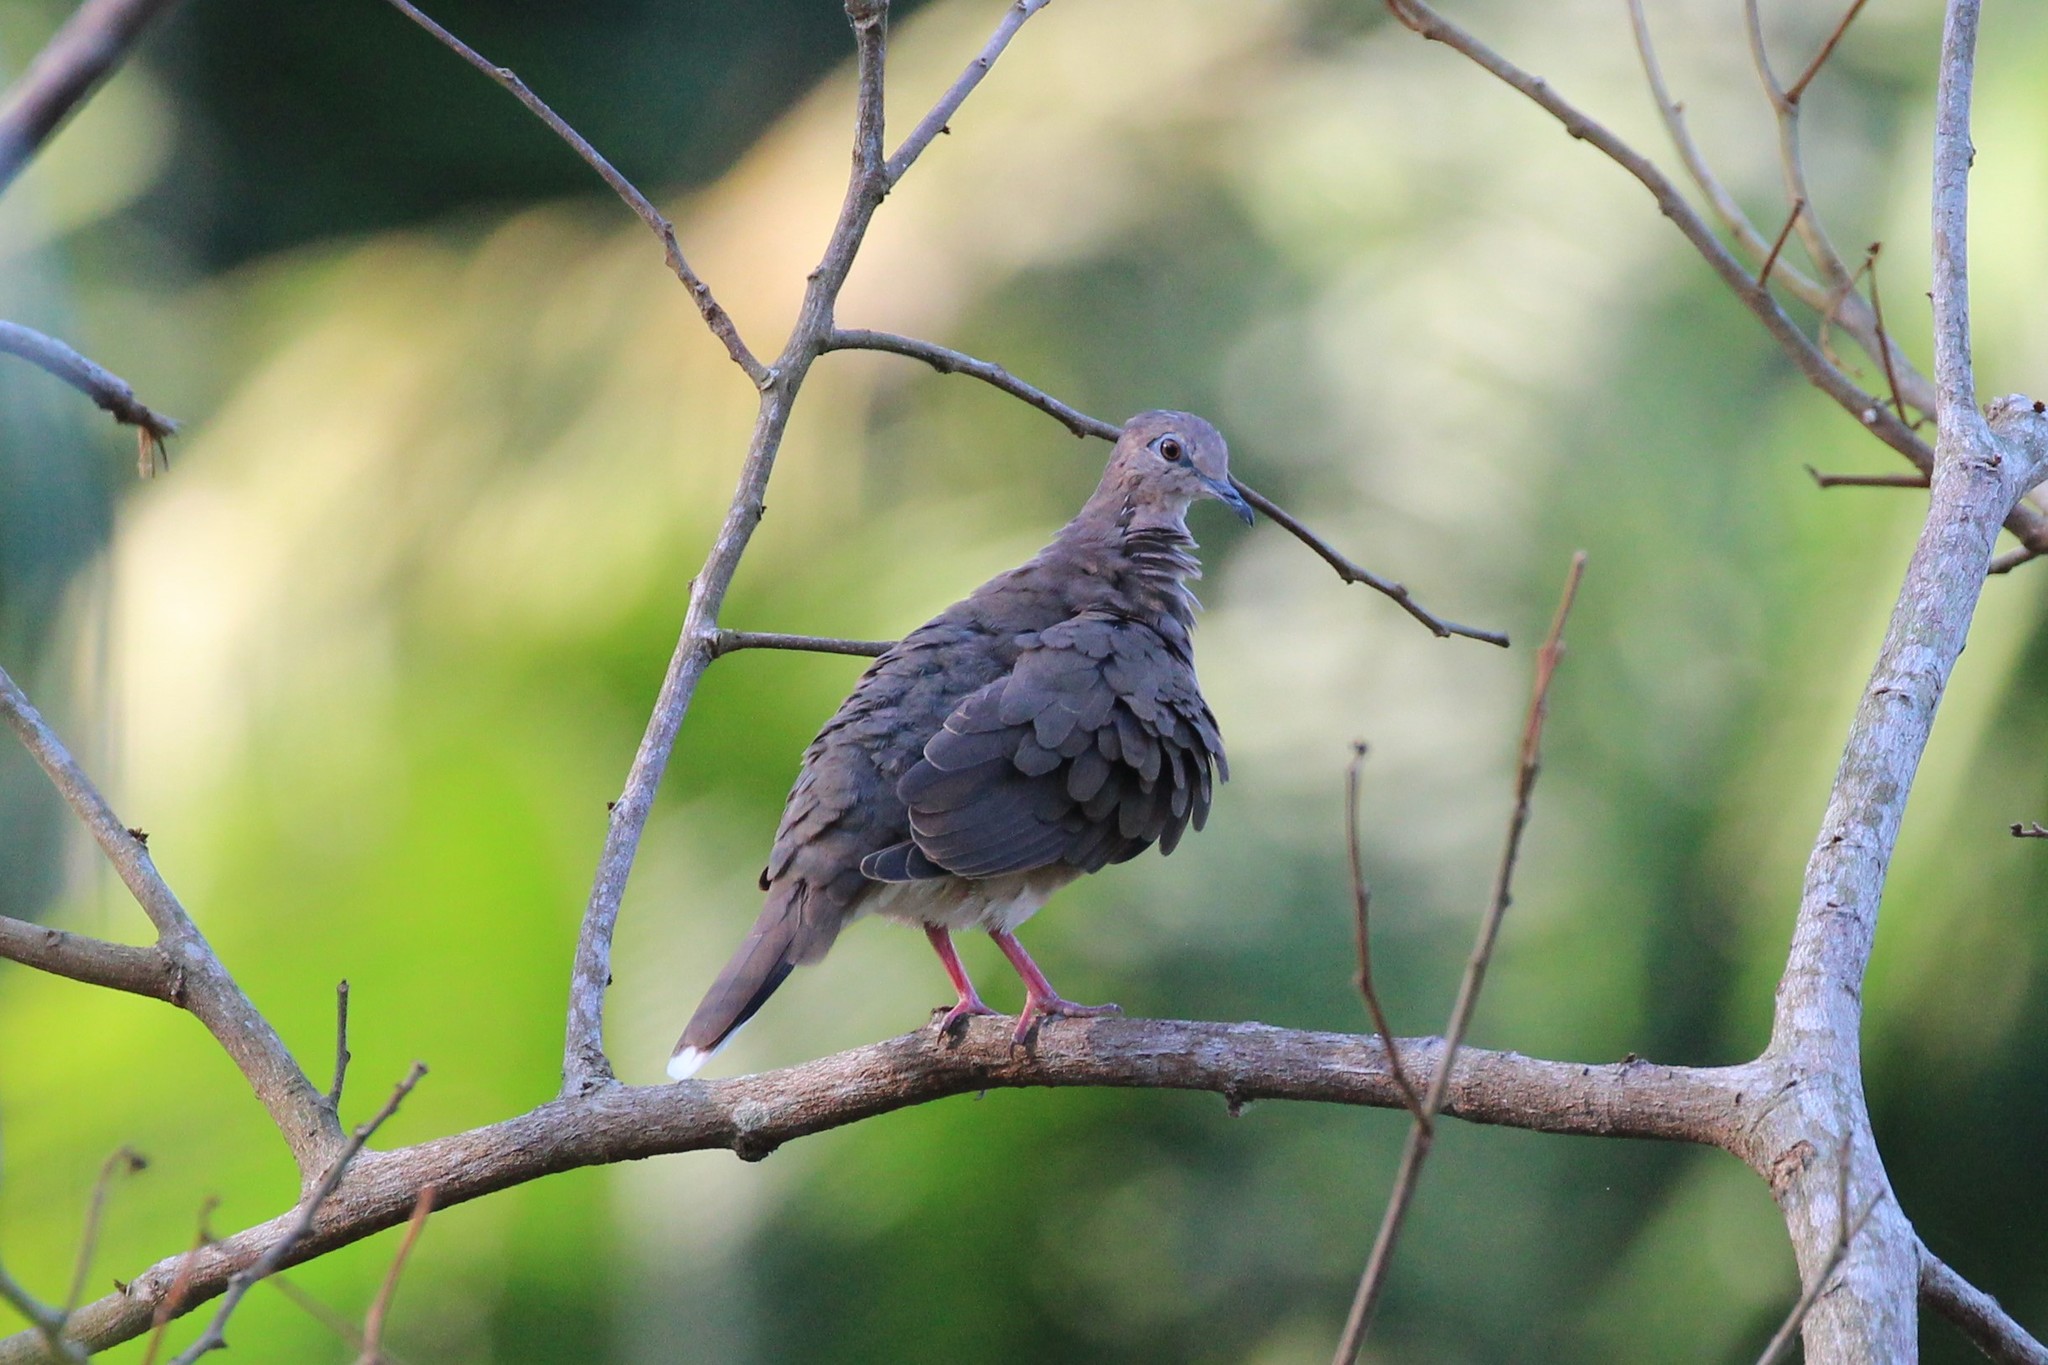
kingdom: Animalia
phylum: Chordata
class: Aves
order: Columbiformes
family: Columbidae
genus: Leptotila
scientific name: Leptotila verreauxi
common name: White-tipped dove
